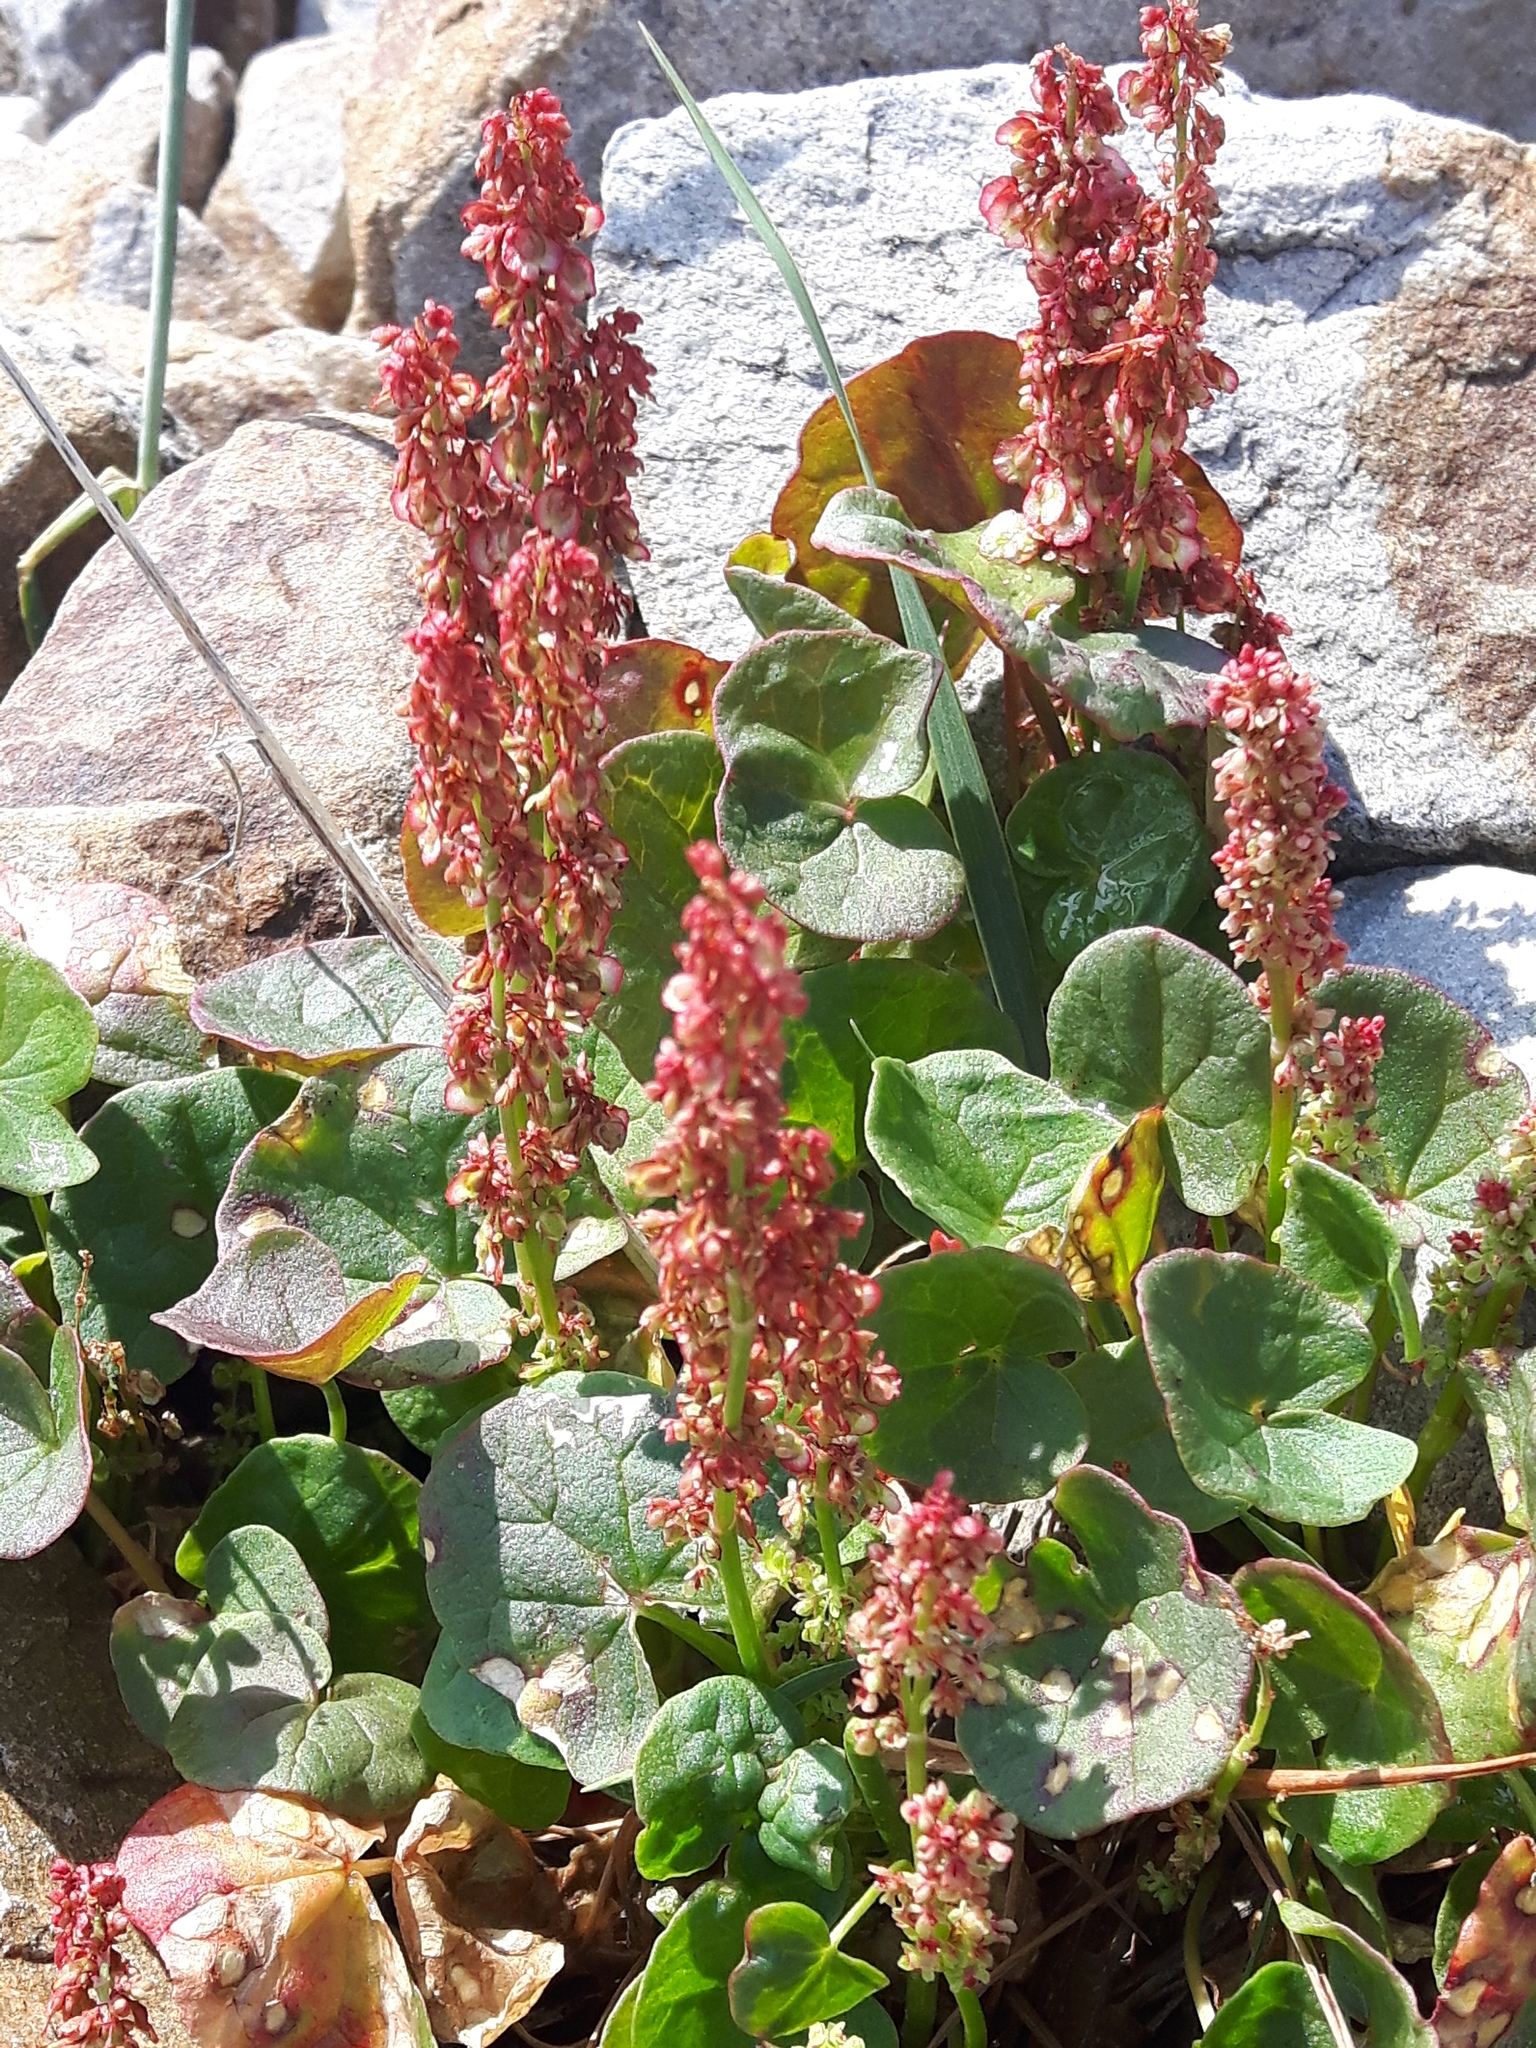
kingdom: Plantae
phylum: Tracheophyta
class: Magnoliopsida
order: Caryophyllales
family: Polygonaceae
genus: Oxyria
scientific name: Oxyria digyna
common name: Alpine mountain-sorrel
